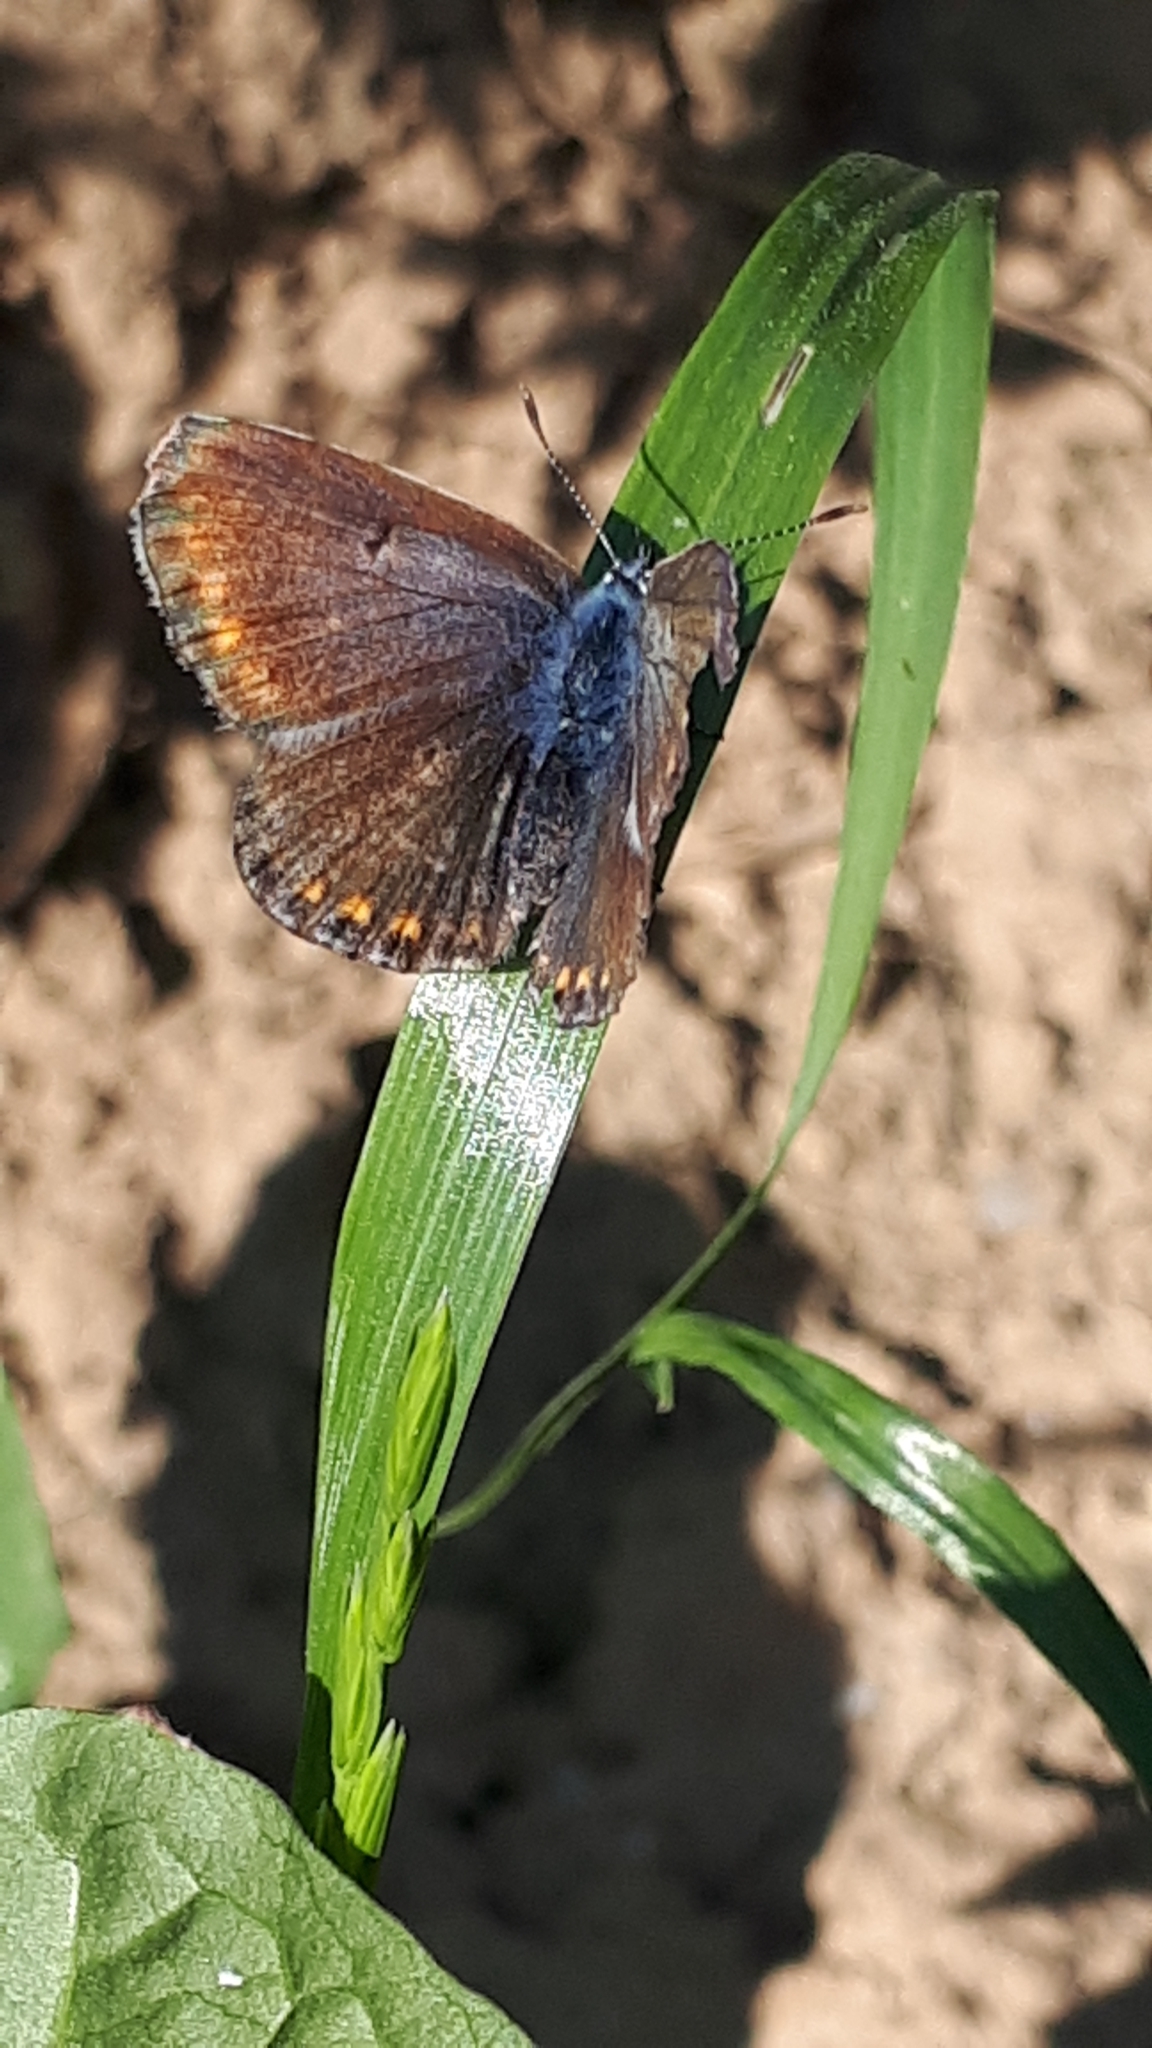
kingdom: Animalia
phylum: Arthropoda
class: Insecta
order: Lepidoptera
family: Lycaenidae
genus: Polyommatus
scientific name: Polyommatus icarus
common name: Common blue
